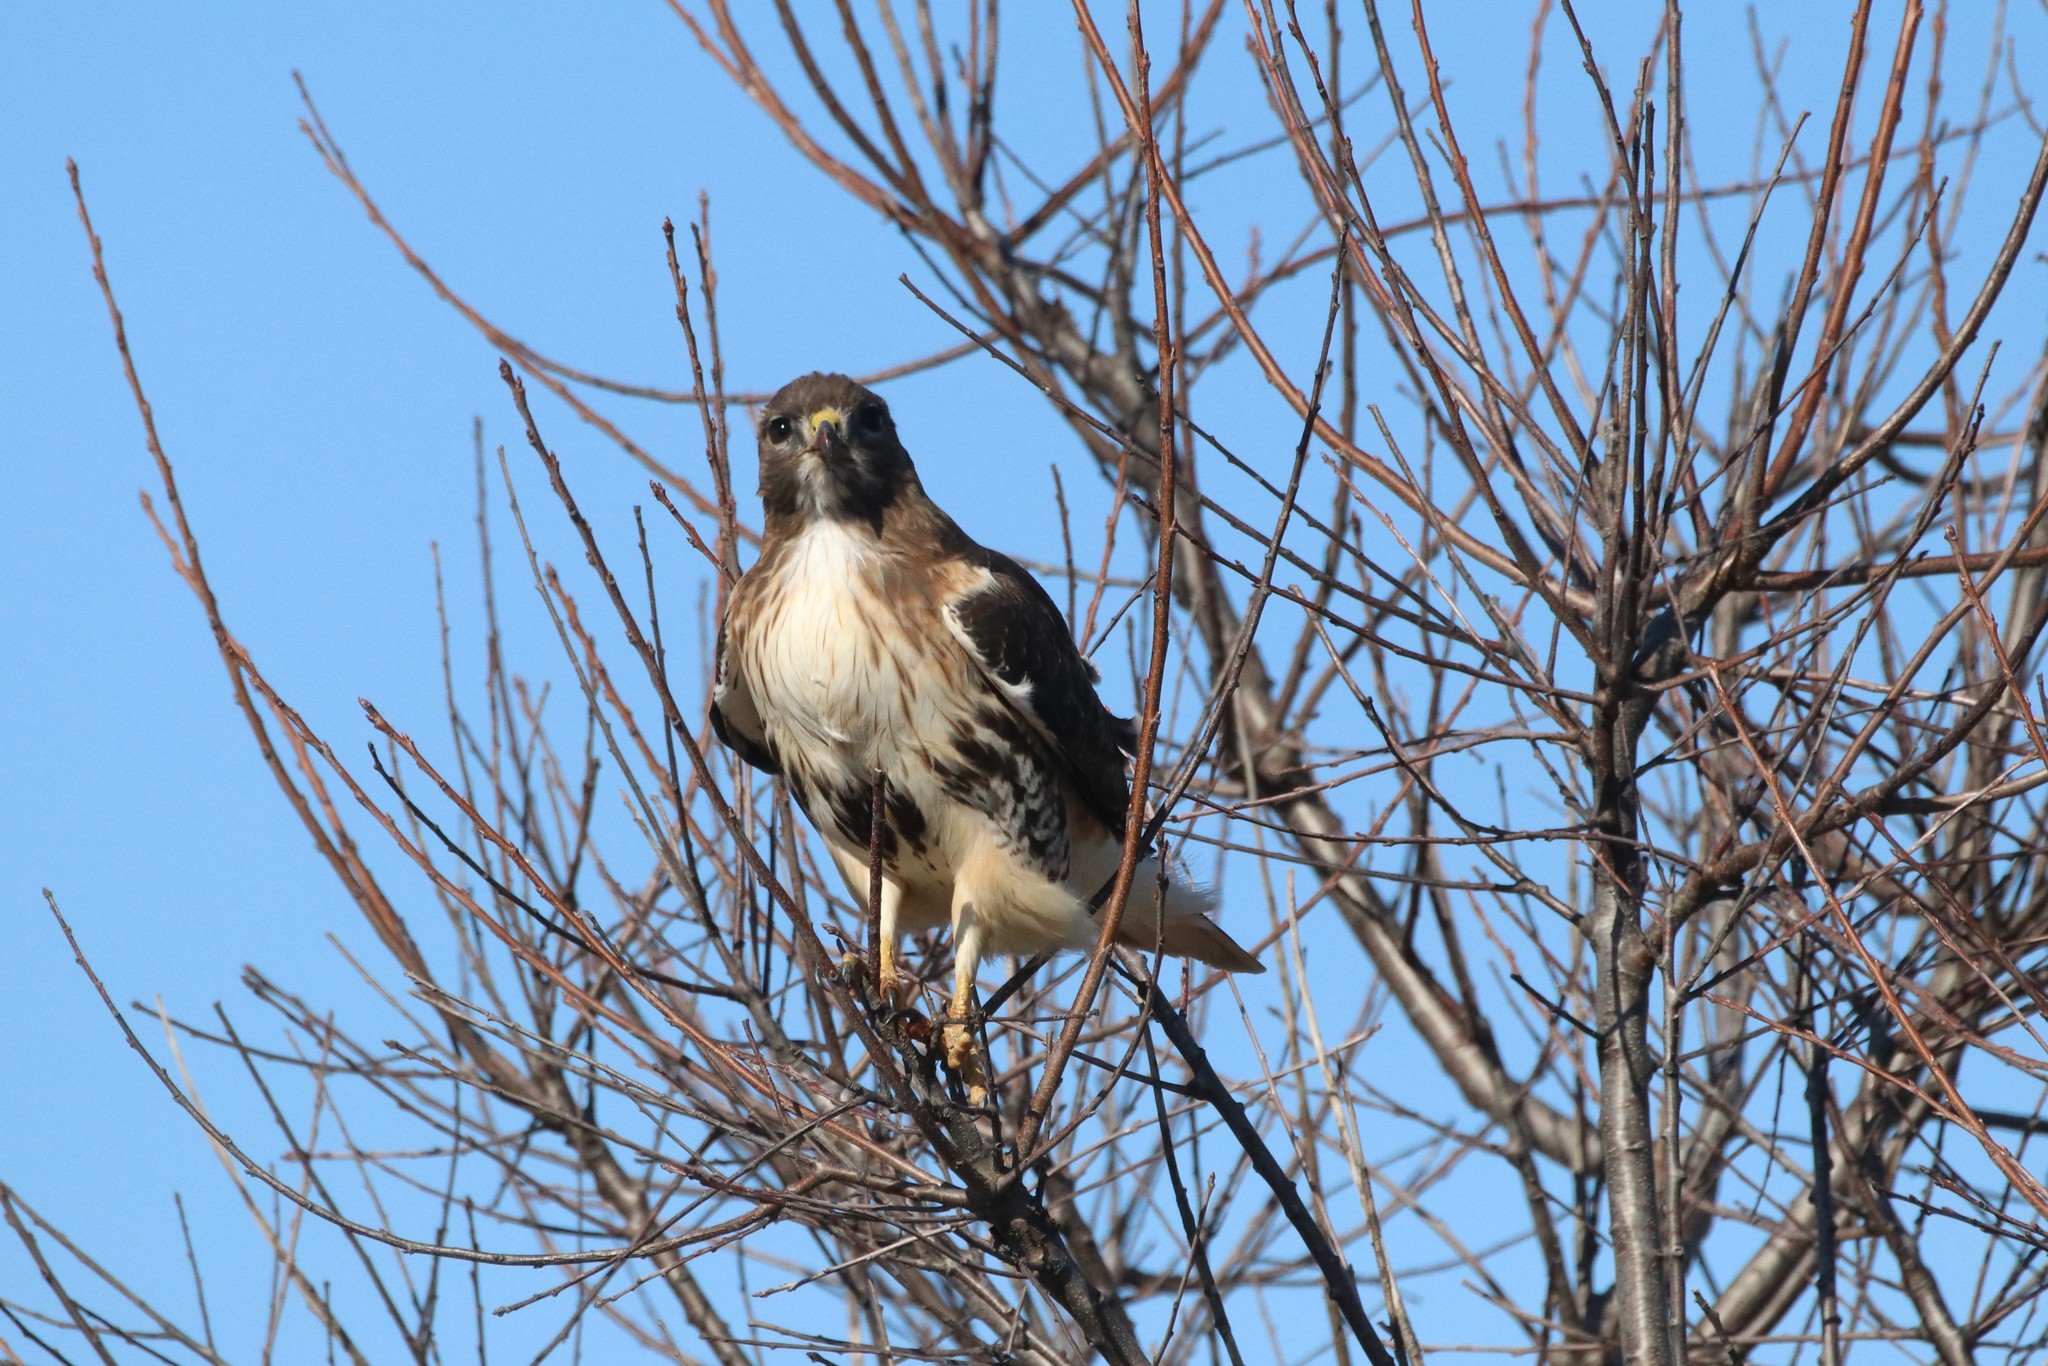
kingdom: Animalia
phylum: Chordata
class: Aves
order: Accipitriformes
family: Accipitridae
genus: Buteo
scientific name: Buteo jamaicensis
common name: Red-tailed hawk
